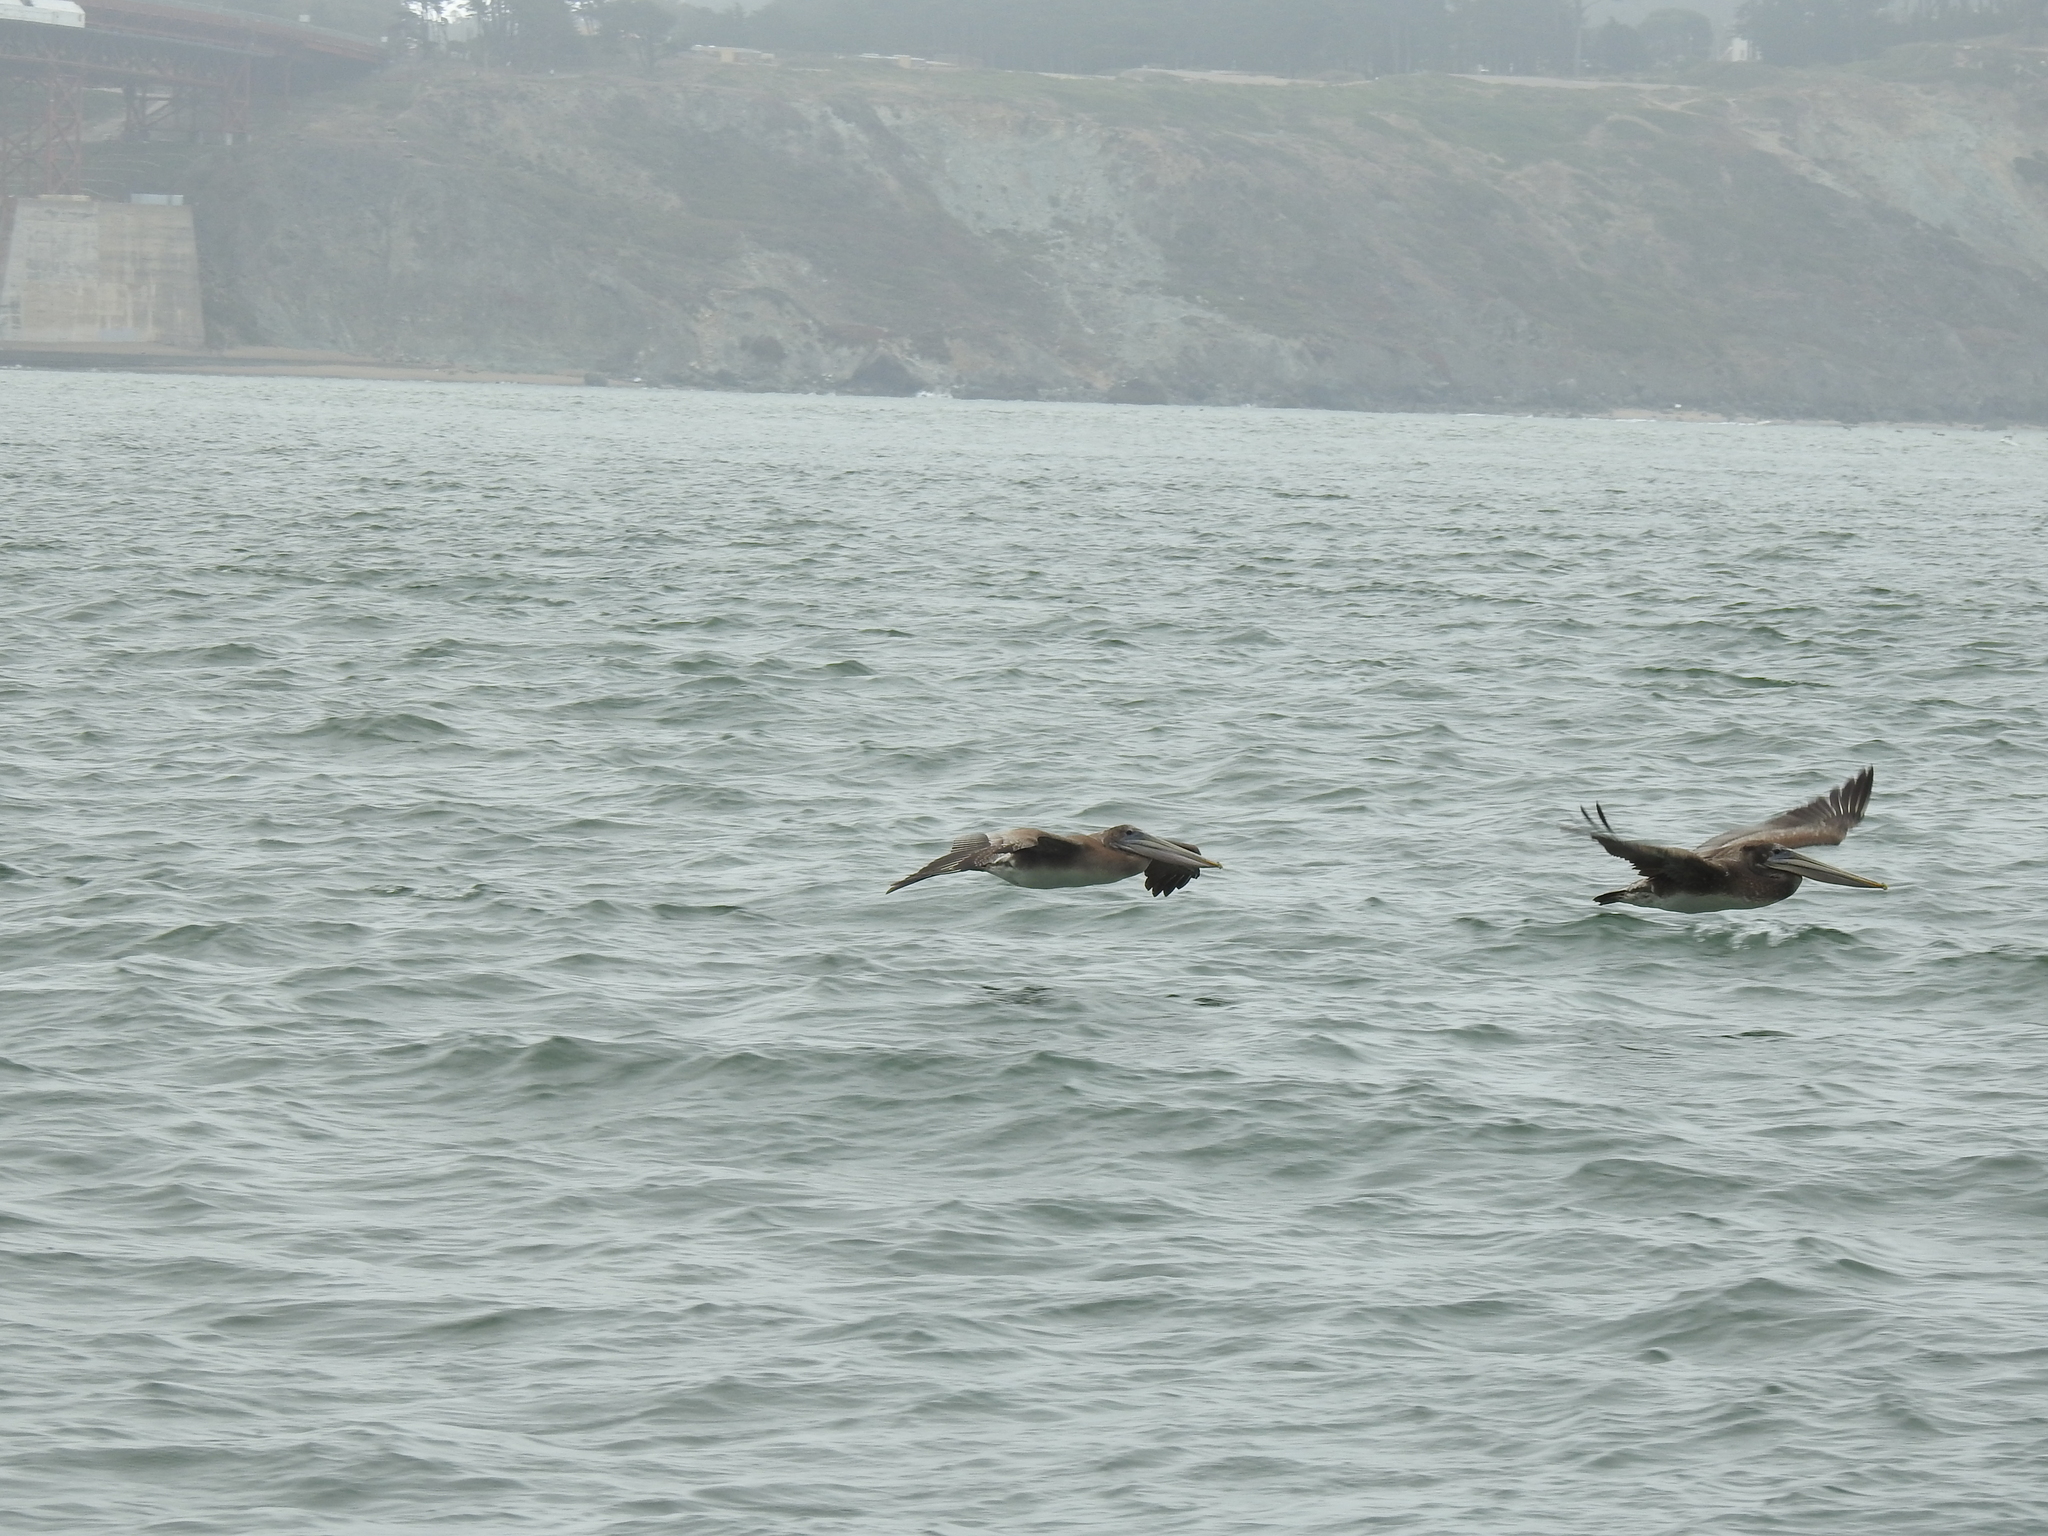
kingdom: Animalia
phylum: Chordata
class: Aves
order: Pelecaniformes
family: Pelecanidae
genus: Pelecanus
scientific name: Pelecanus occidentalis
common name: Brown pelican
